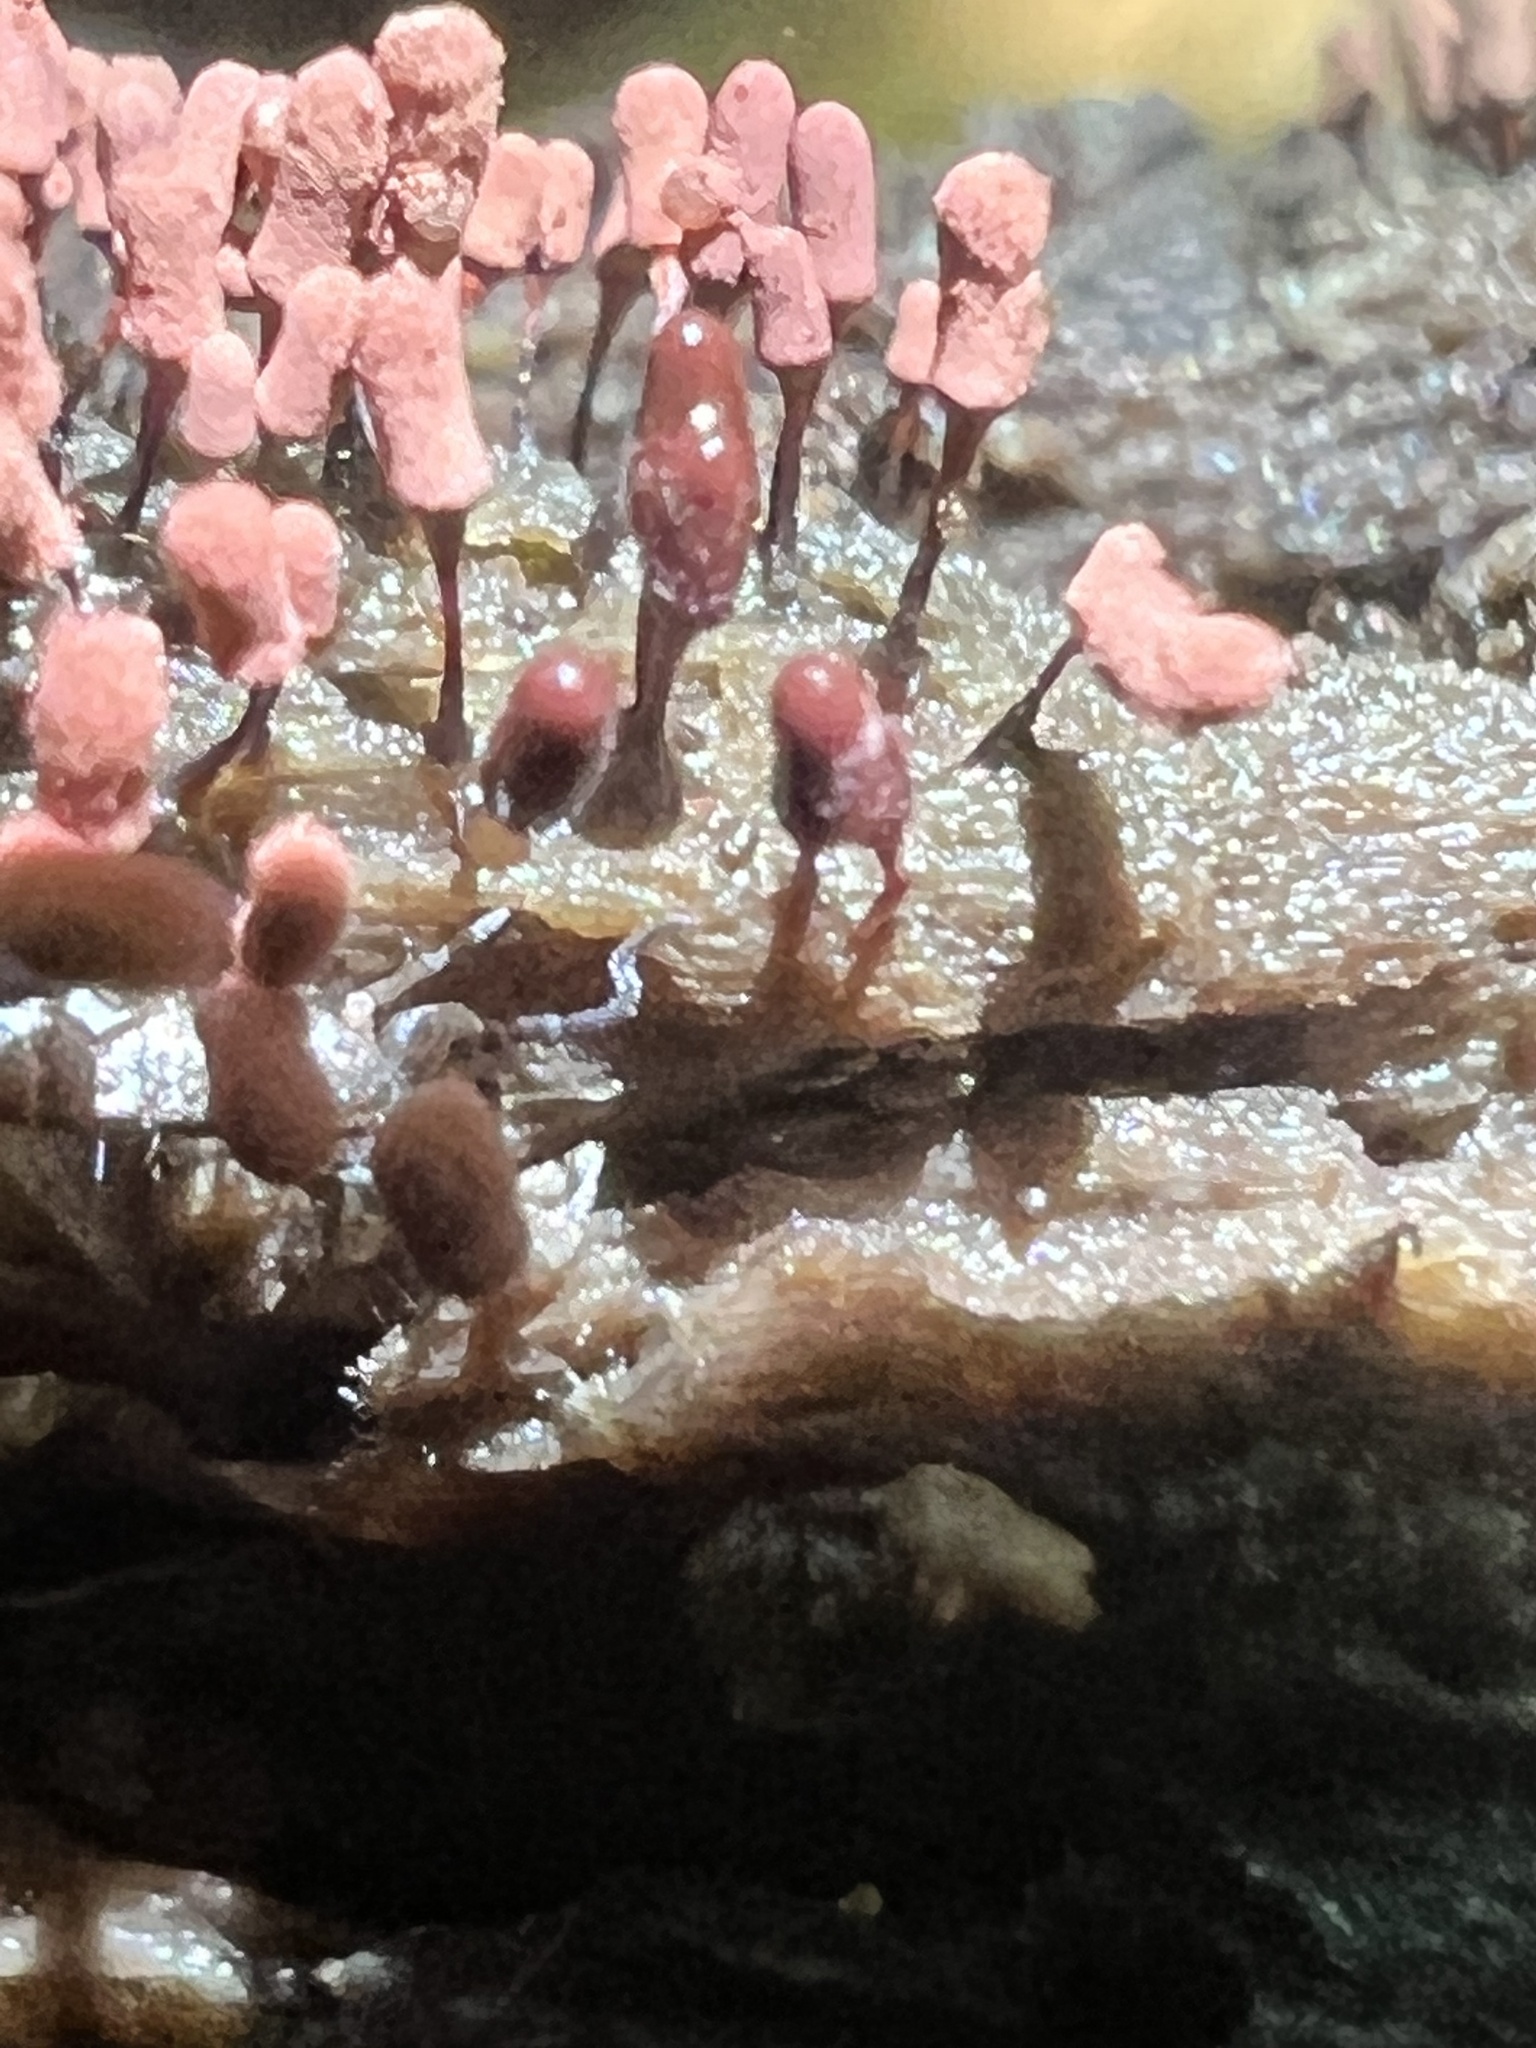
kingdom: Protozoa
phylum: Mycetozoa
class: Myxomycetes
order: Trichiales
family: Arcyriaceae
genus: Arcyria
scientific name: Arcyria denudata
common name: Carnival candy slime mold
